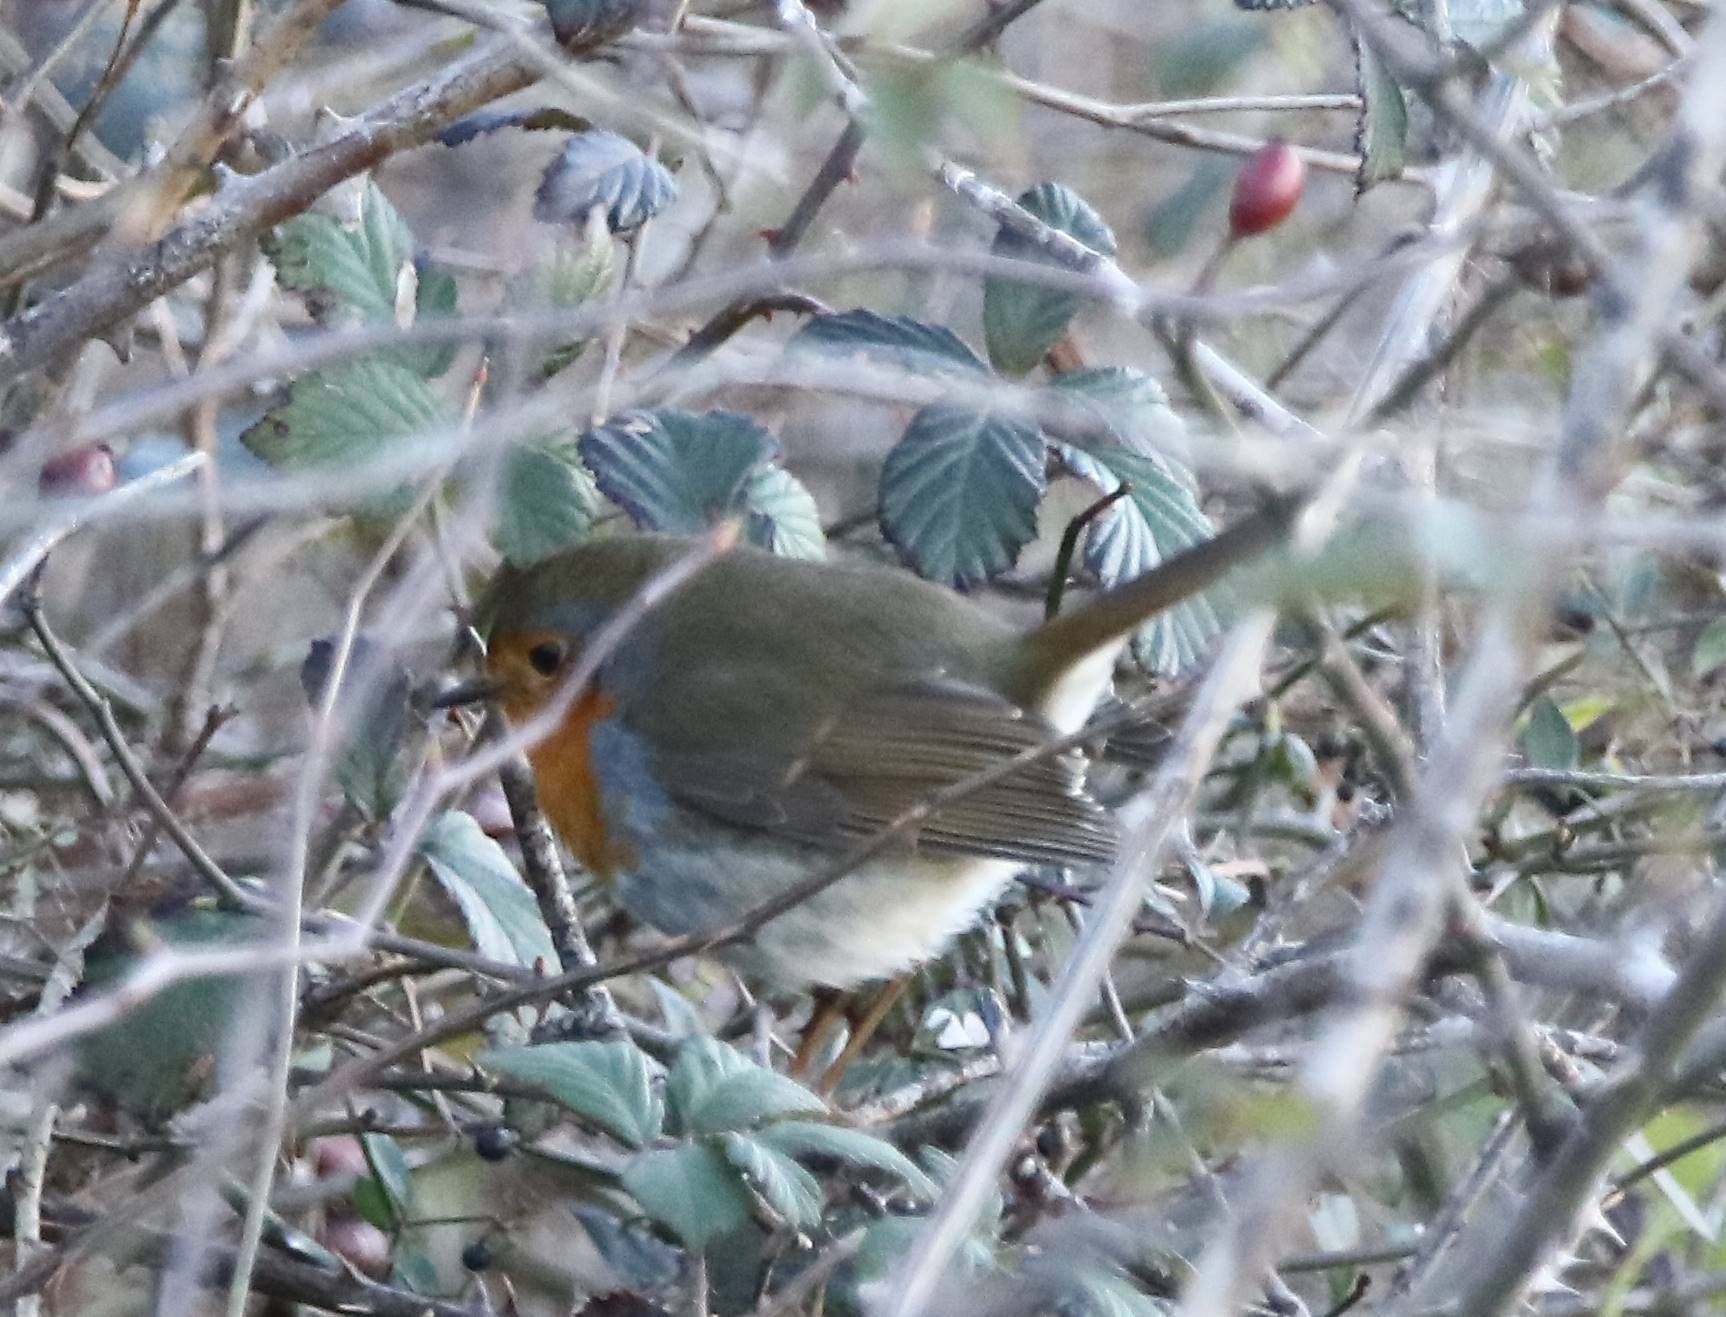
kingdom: Animalia
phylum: Chordata
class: Aves
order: Passeriformes
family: Muscicapidae
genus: Erithacus
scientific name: Erithacus rubecula
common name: European robin
